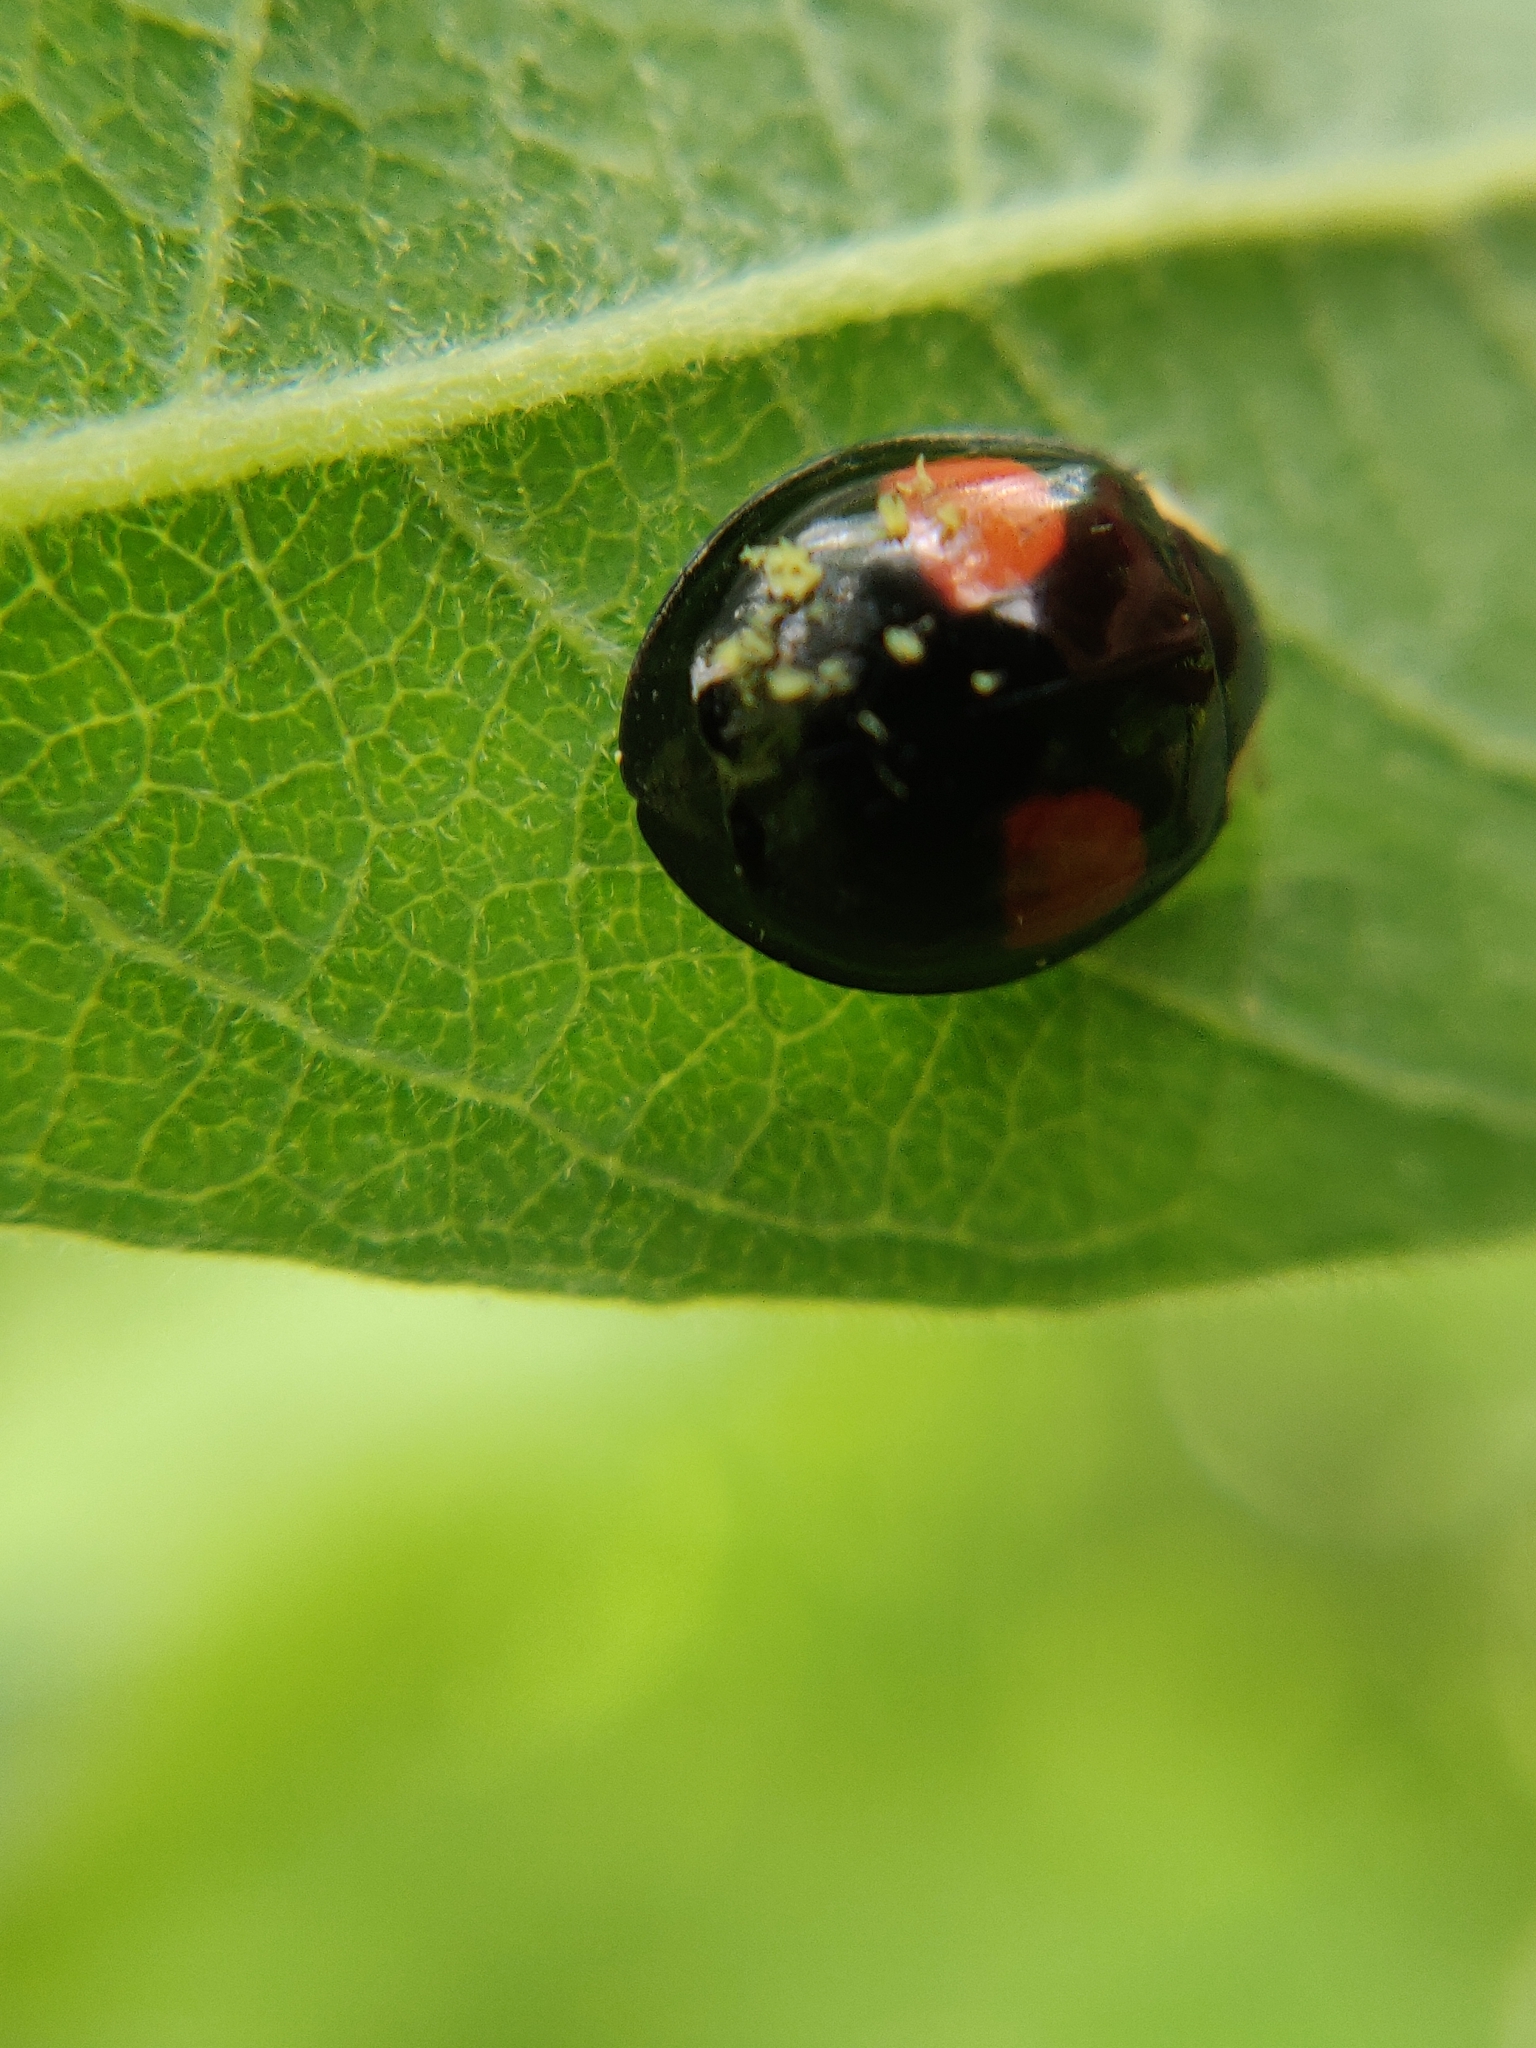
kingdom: Animalia
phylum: Arthropoda
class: Insecta
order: Coleoptera
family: Coccinellidae
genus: Harmonia
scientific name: Harmonia axyridis
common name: Harlequin ladybird
